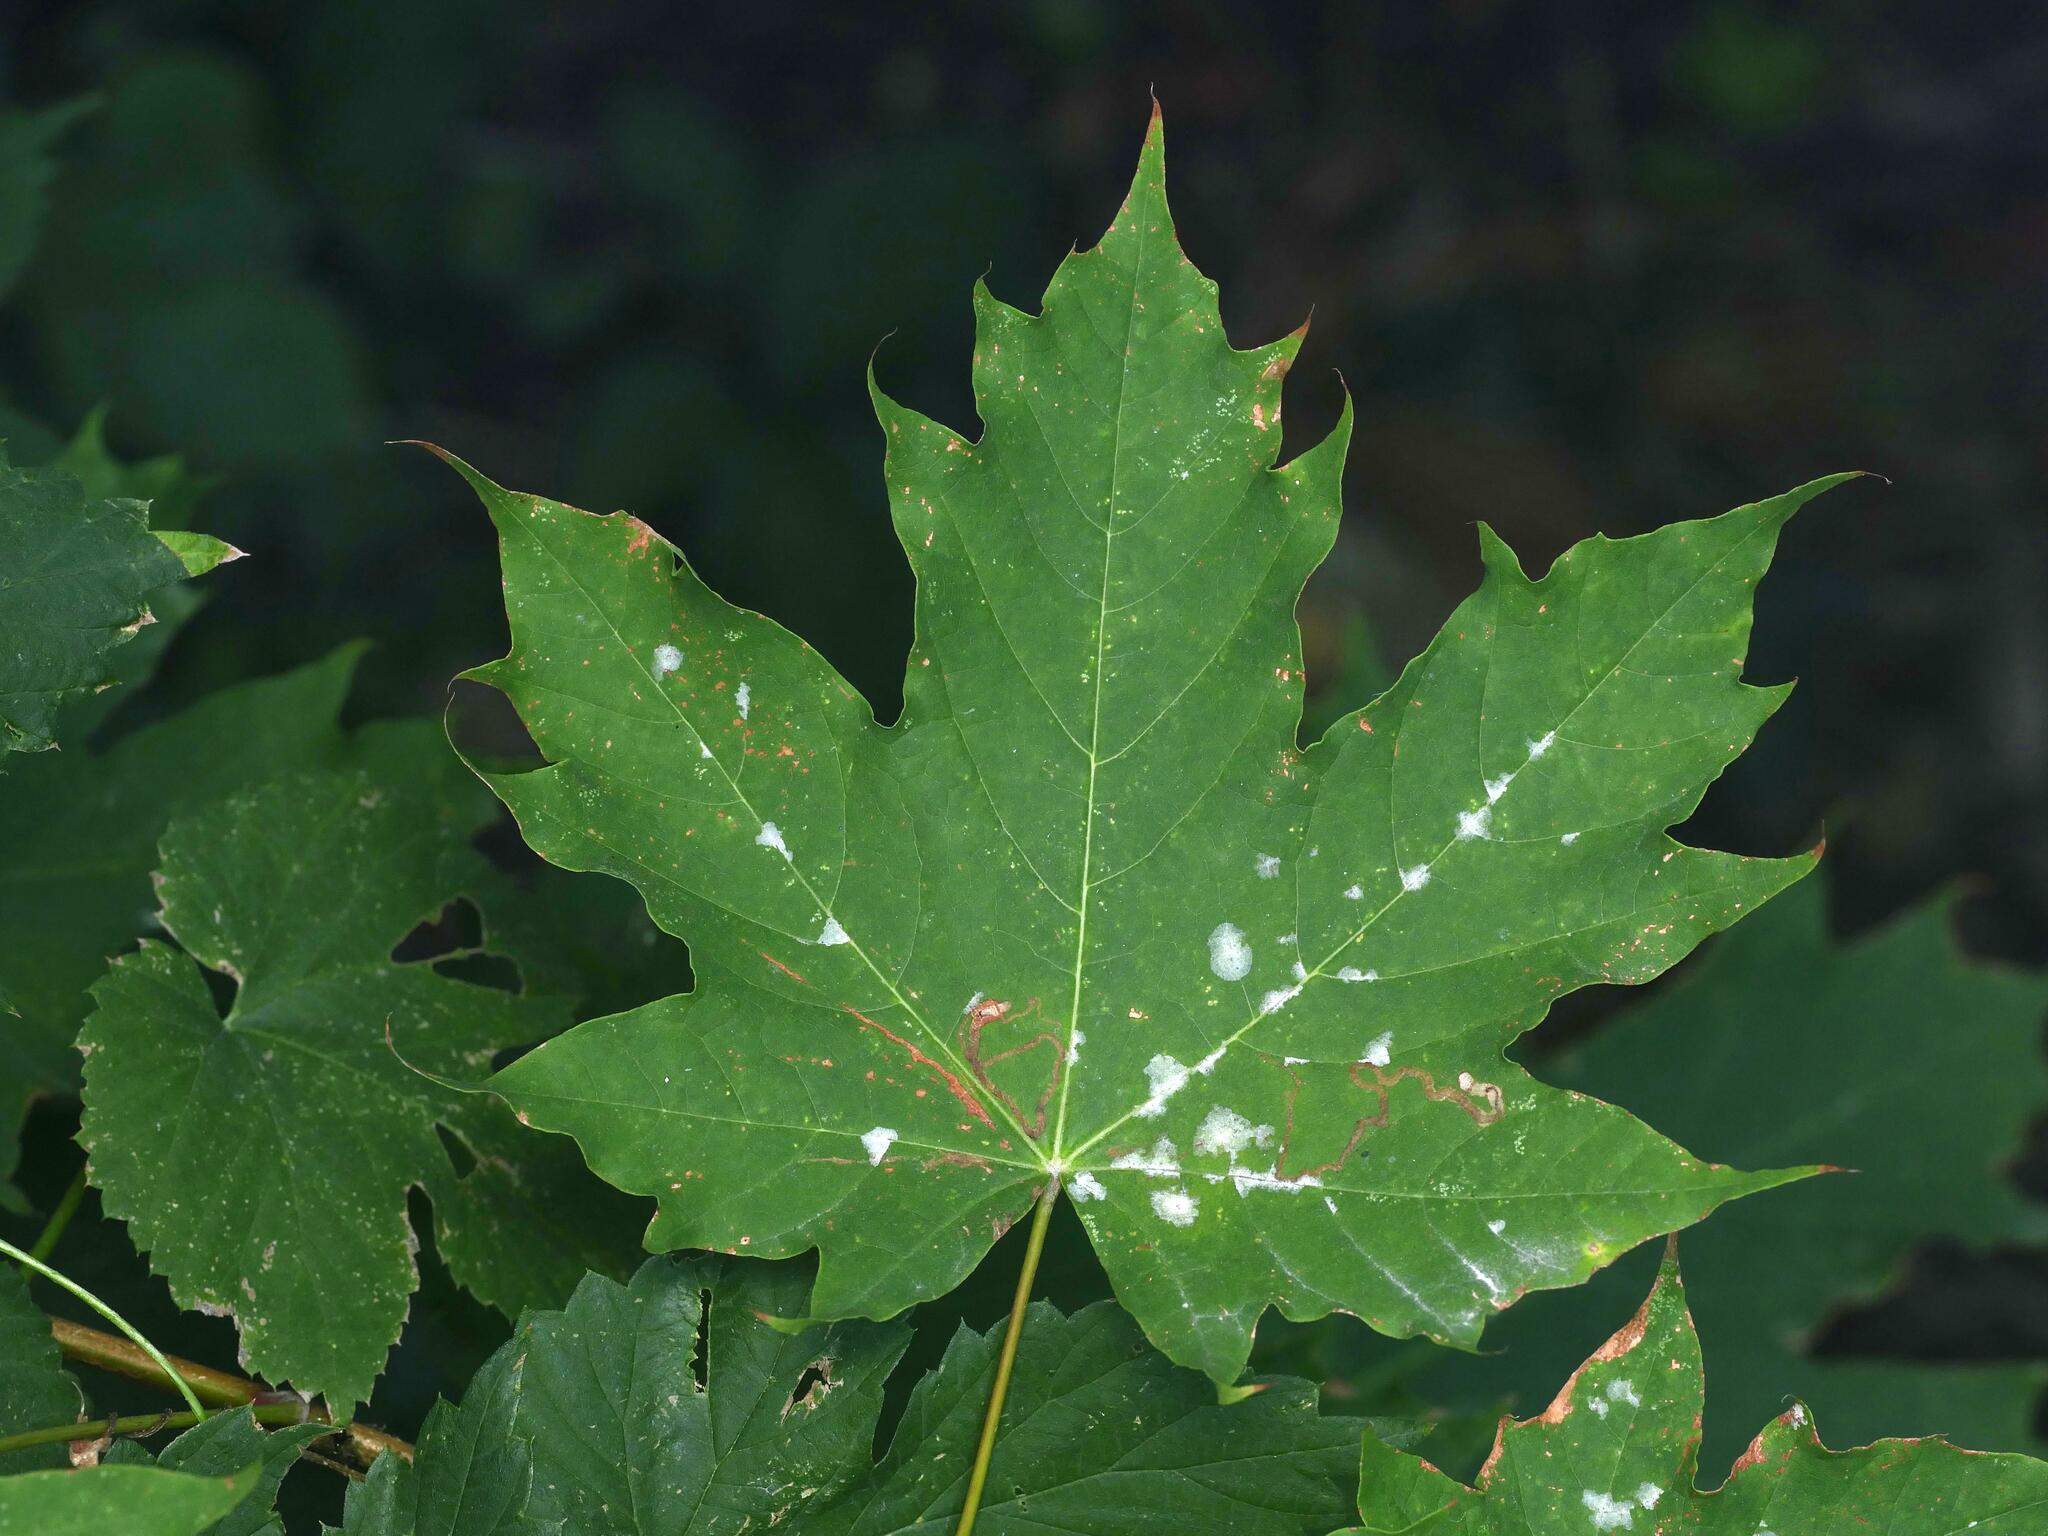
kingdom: Plantae
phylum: Tracheophyta
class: Magnoliopsida
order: Sapindales
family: Sapindaceae
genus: Acer
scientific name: Acer platanoides
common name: Norway maple
